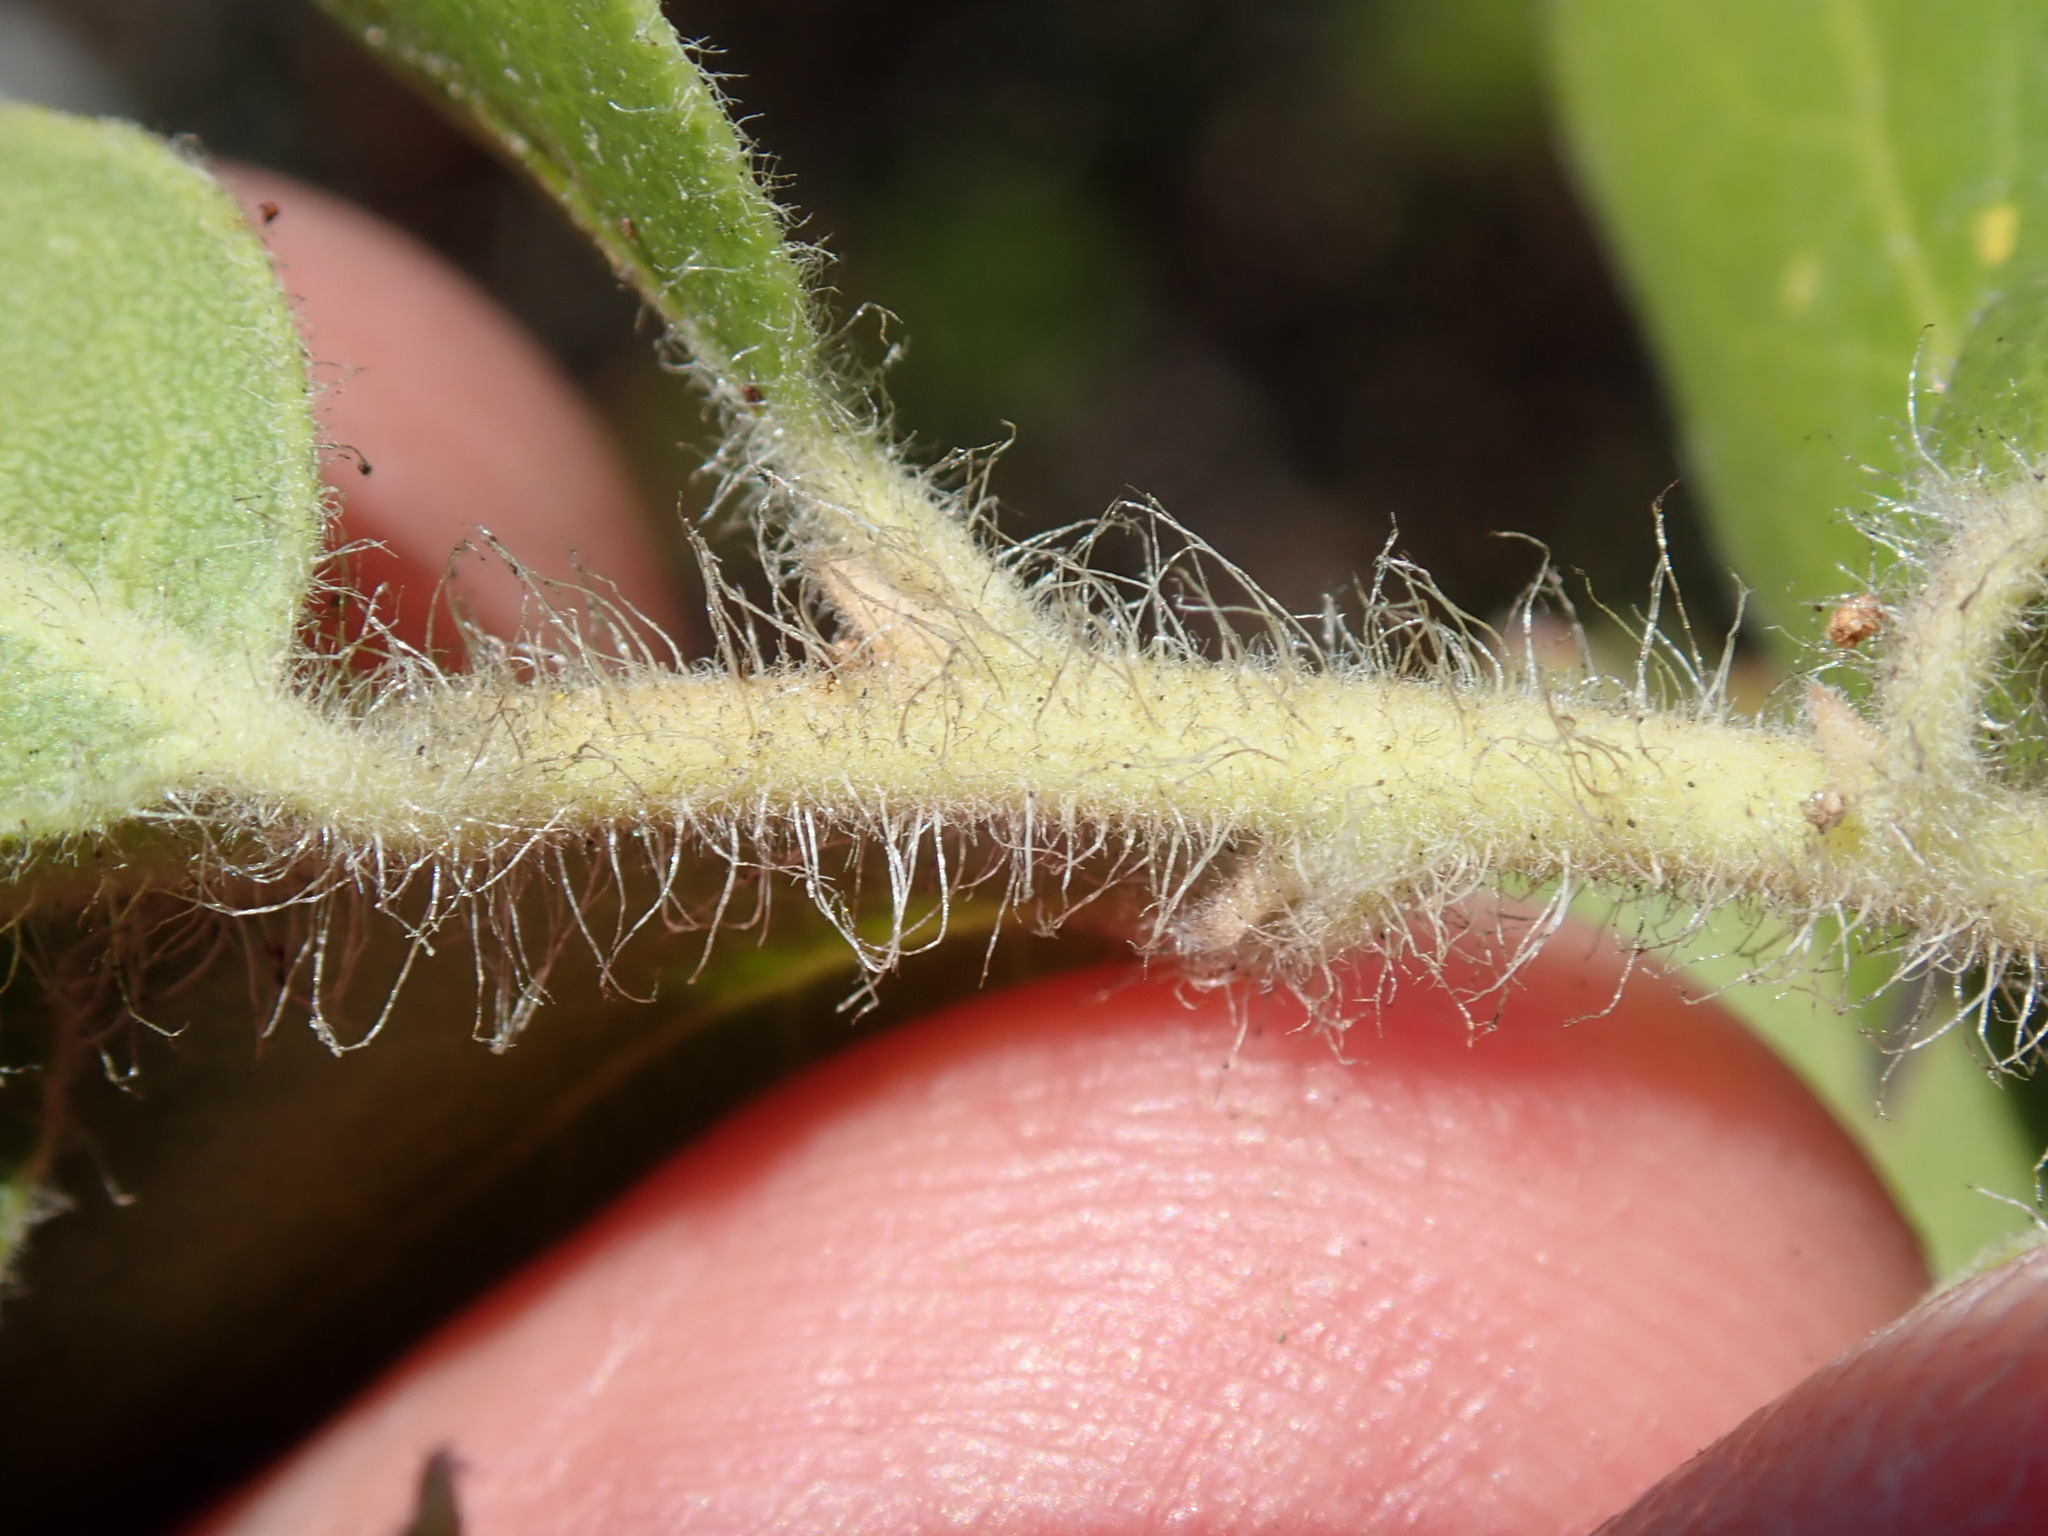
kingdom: Plantae
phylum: Tracheophyta
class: Magnoliopsida
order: Ericales
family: Ericaceae
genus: Arctostaphylos
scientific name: Arctostaphylos crustacea
